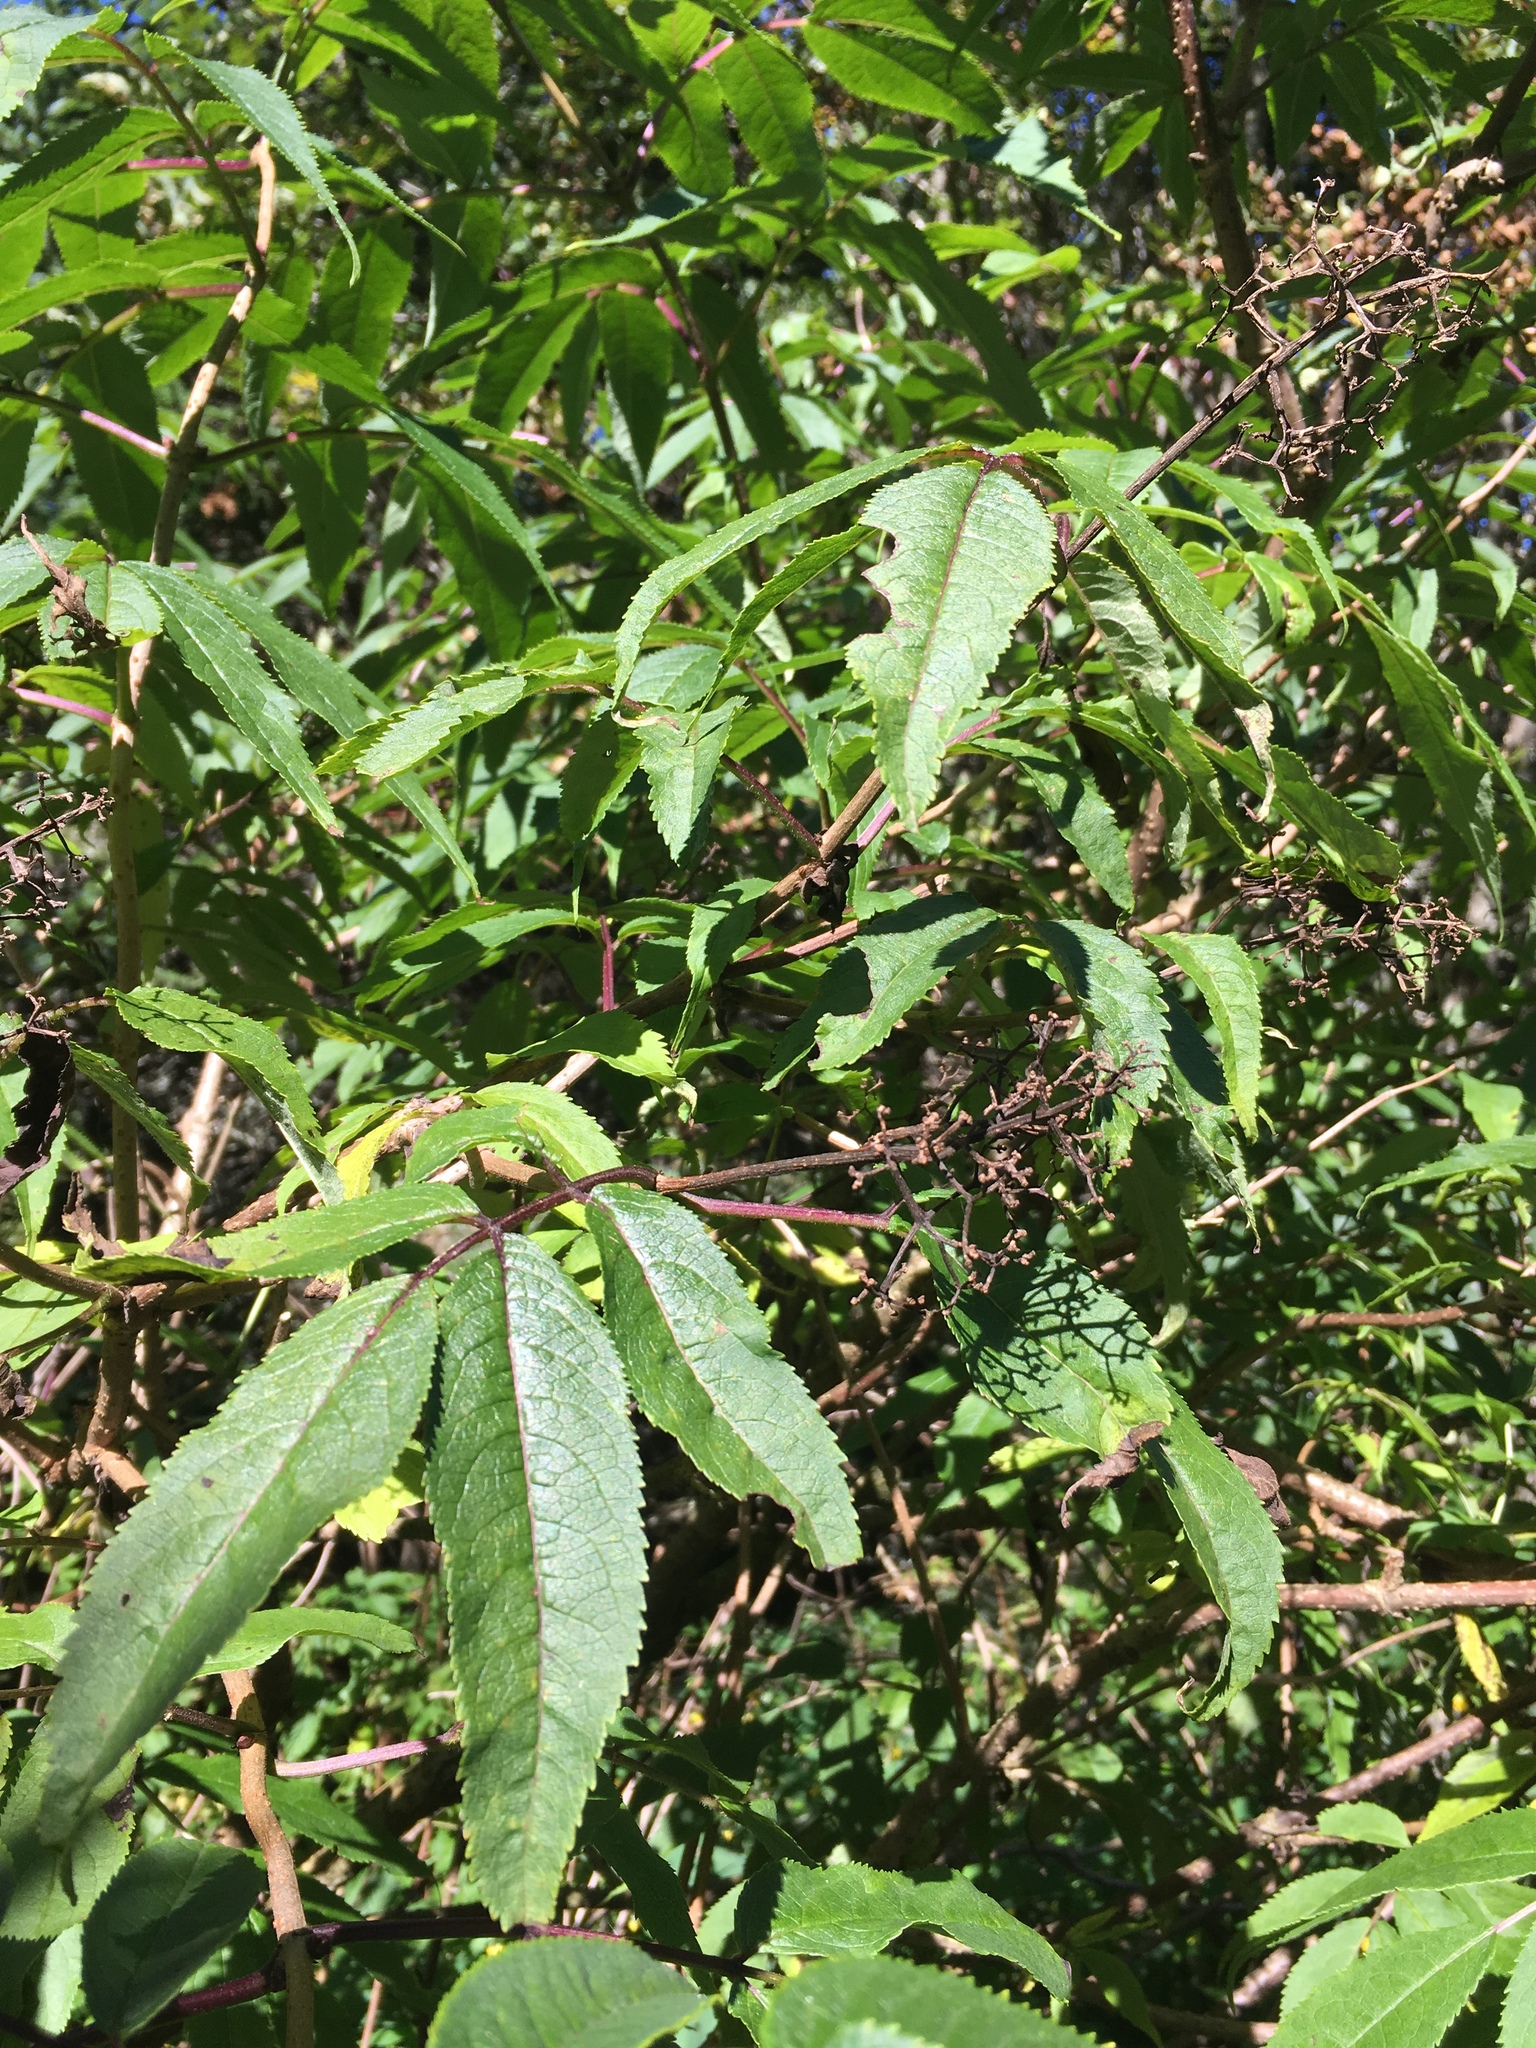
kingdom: Plantae
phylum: Tracheophyta
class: Magnoliopsida
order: Dipsacales
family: Viburnaceae
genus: Sambucus
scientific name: Sambucus racemosa
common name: Red-berried elder
